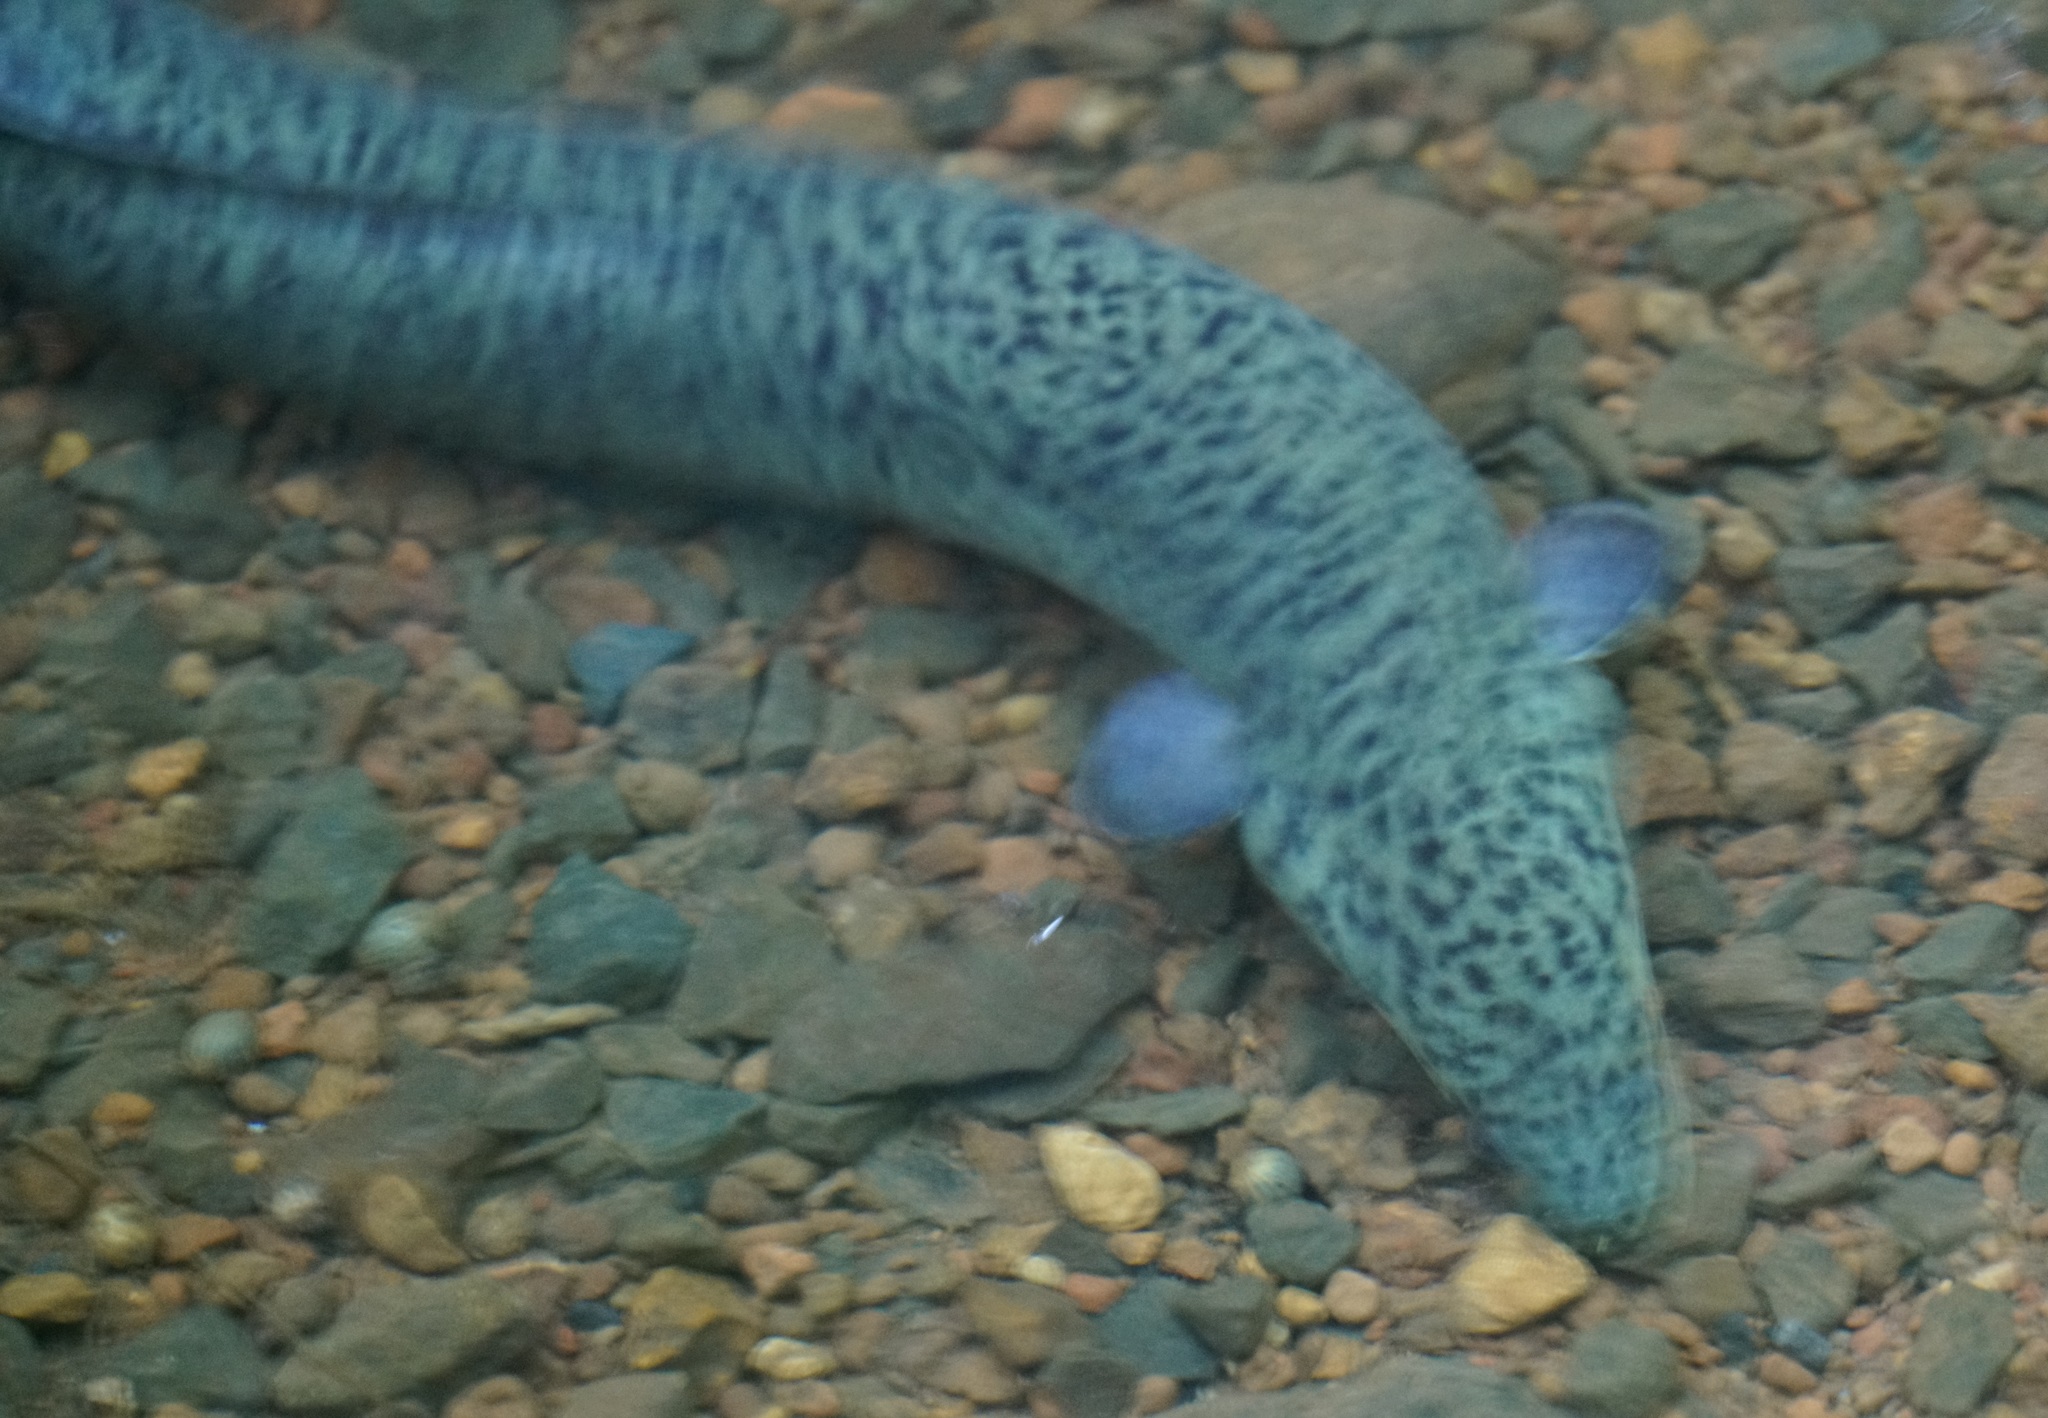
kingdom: Animalia
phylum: Chordata
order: Anguilliformes
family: Anguillidae
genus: Anguilla
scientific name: Anguilla reinhardtii
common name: Longfin eel
